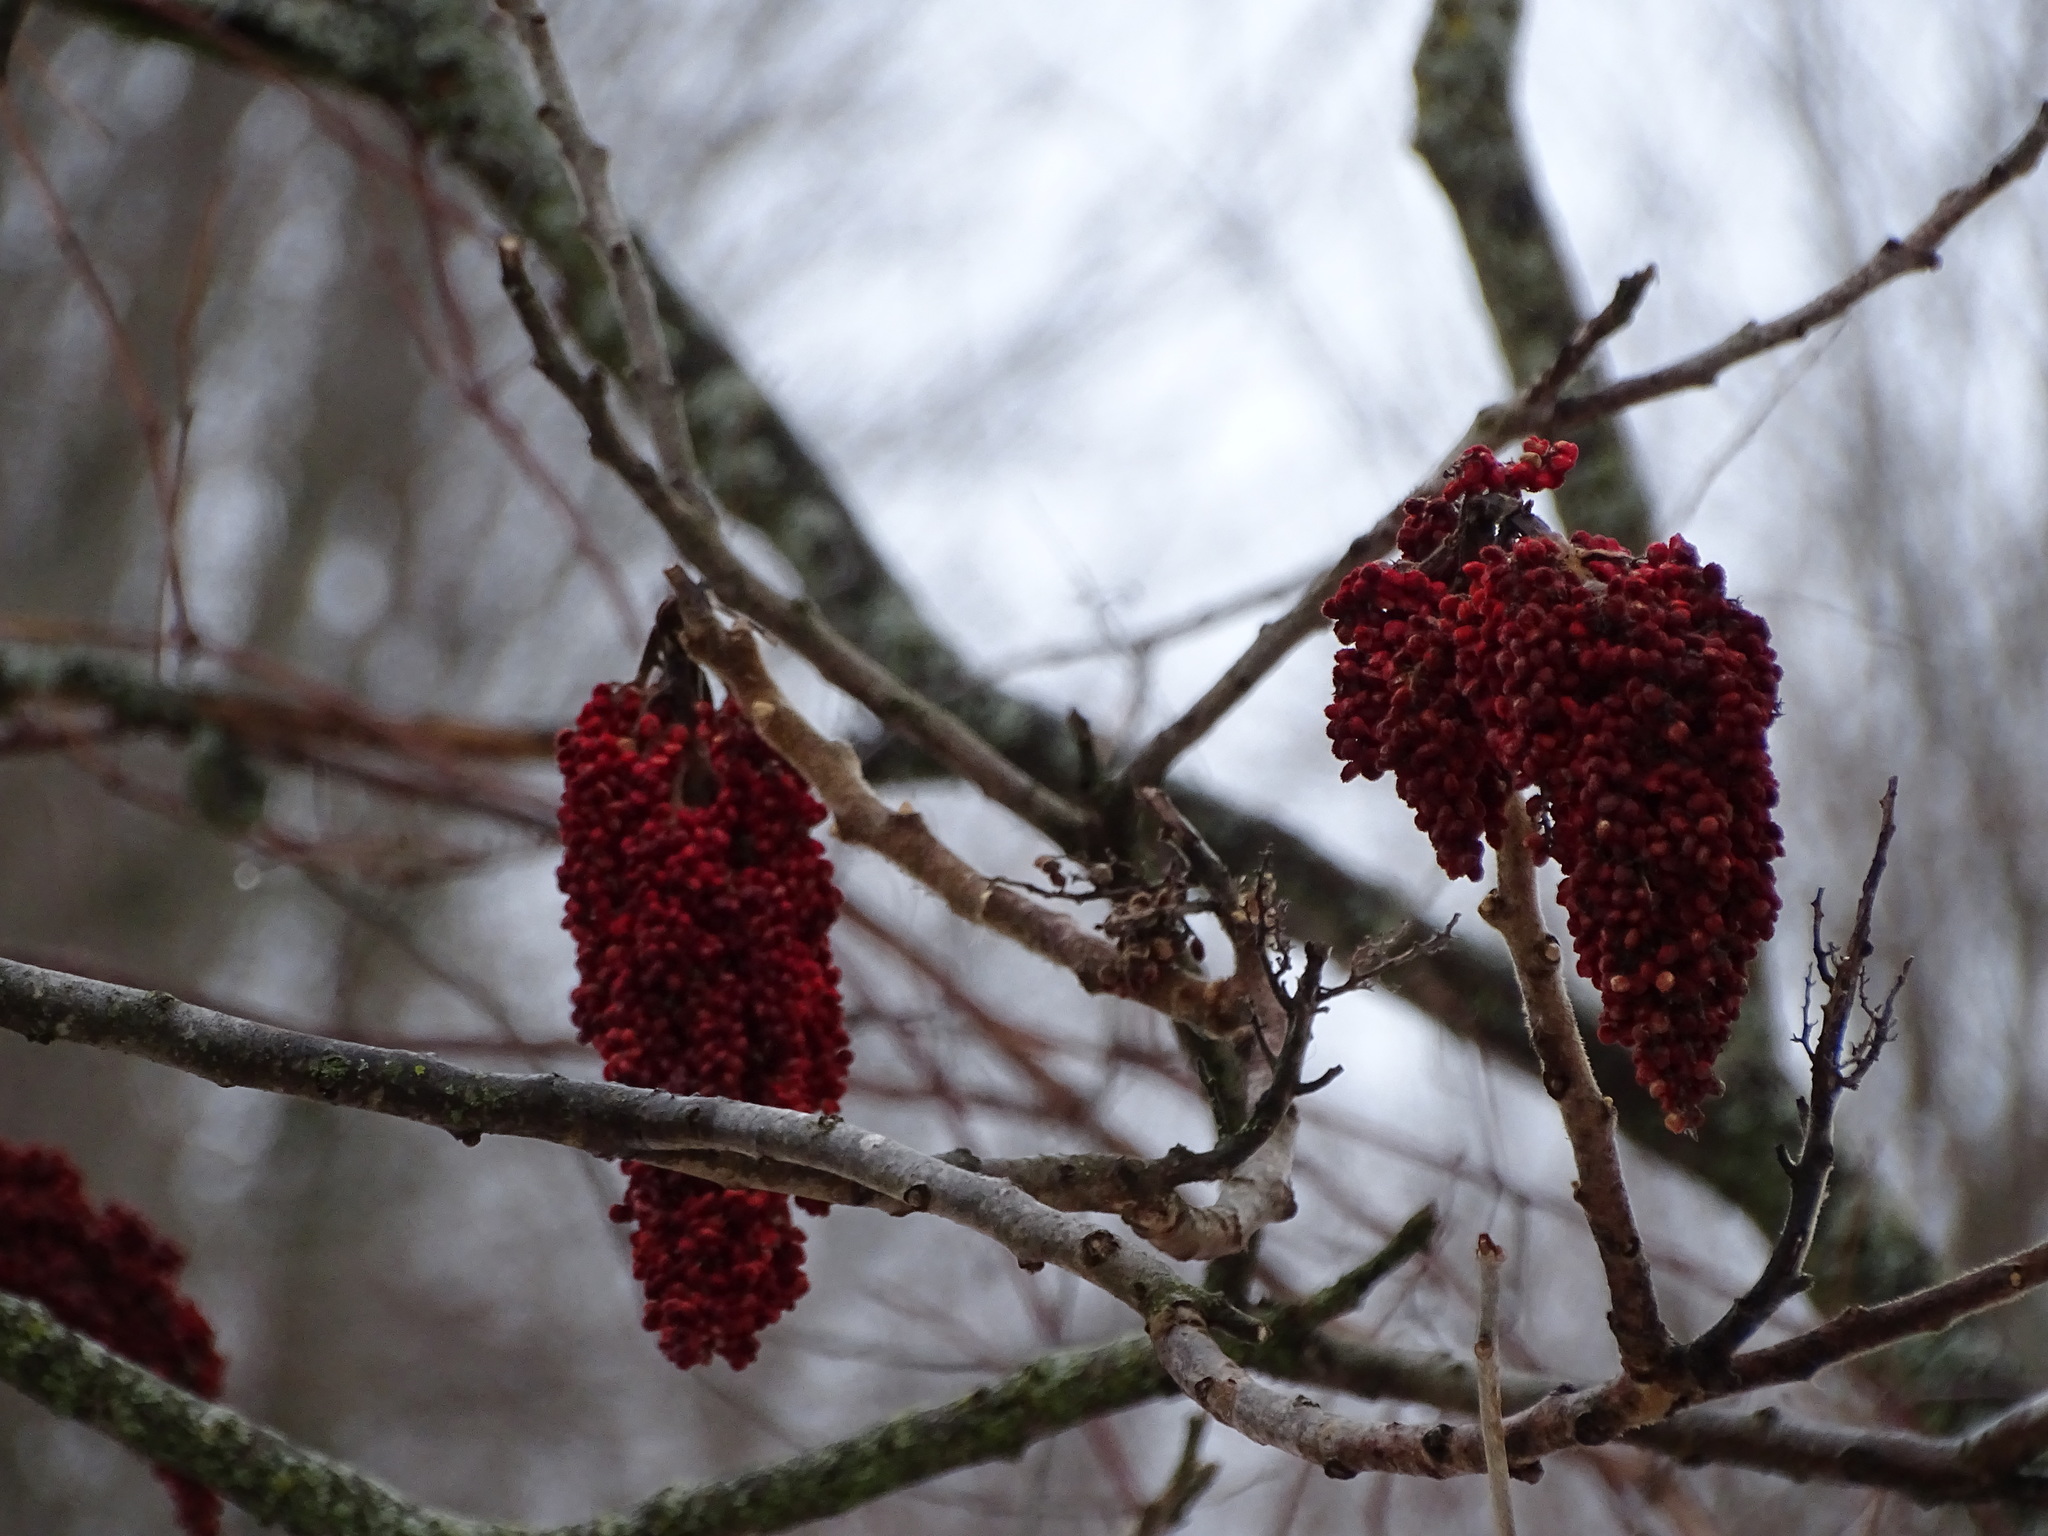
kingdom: Plantae
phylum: Tracheophyta
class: Magnoliopsida
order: Sapindales
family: Anacardiaceae
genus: Rhus
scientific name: Rhus typhina
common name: Staghorn sumac
